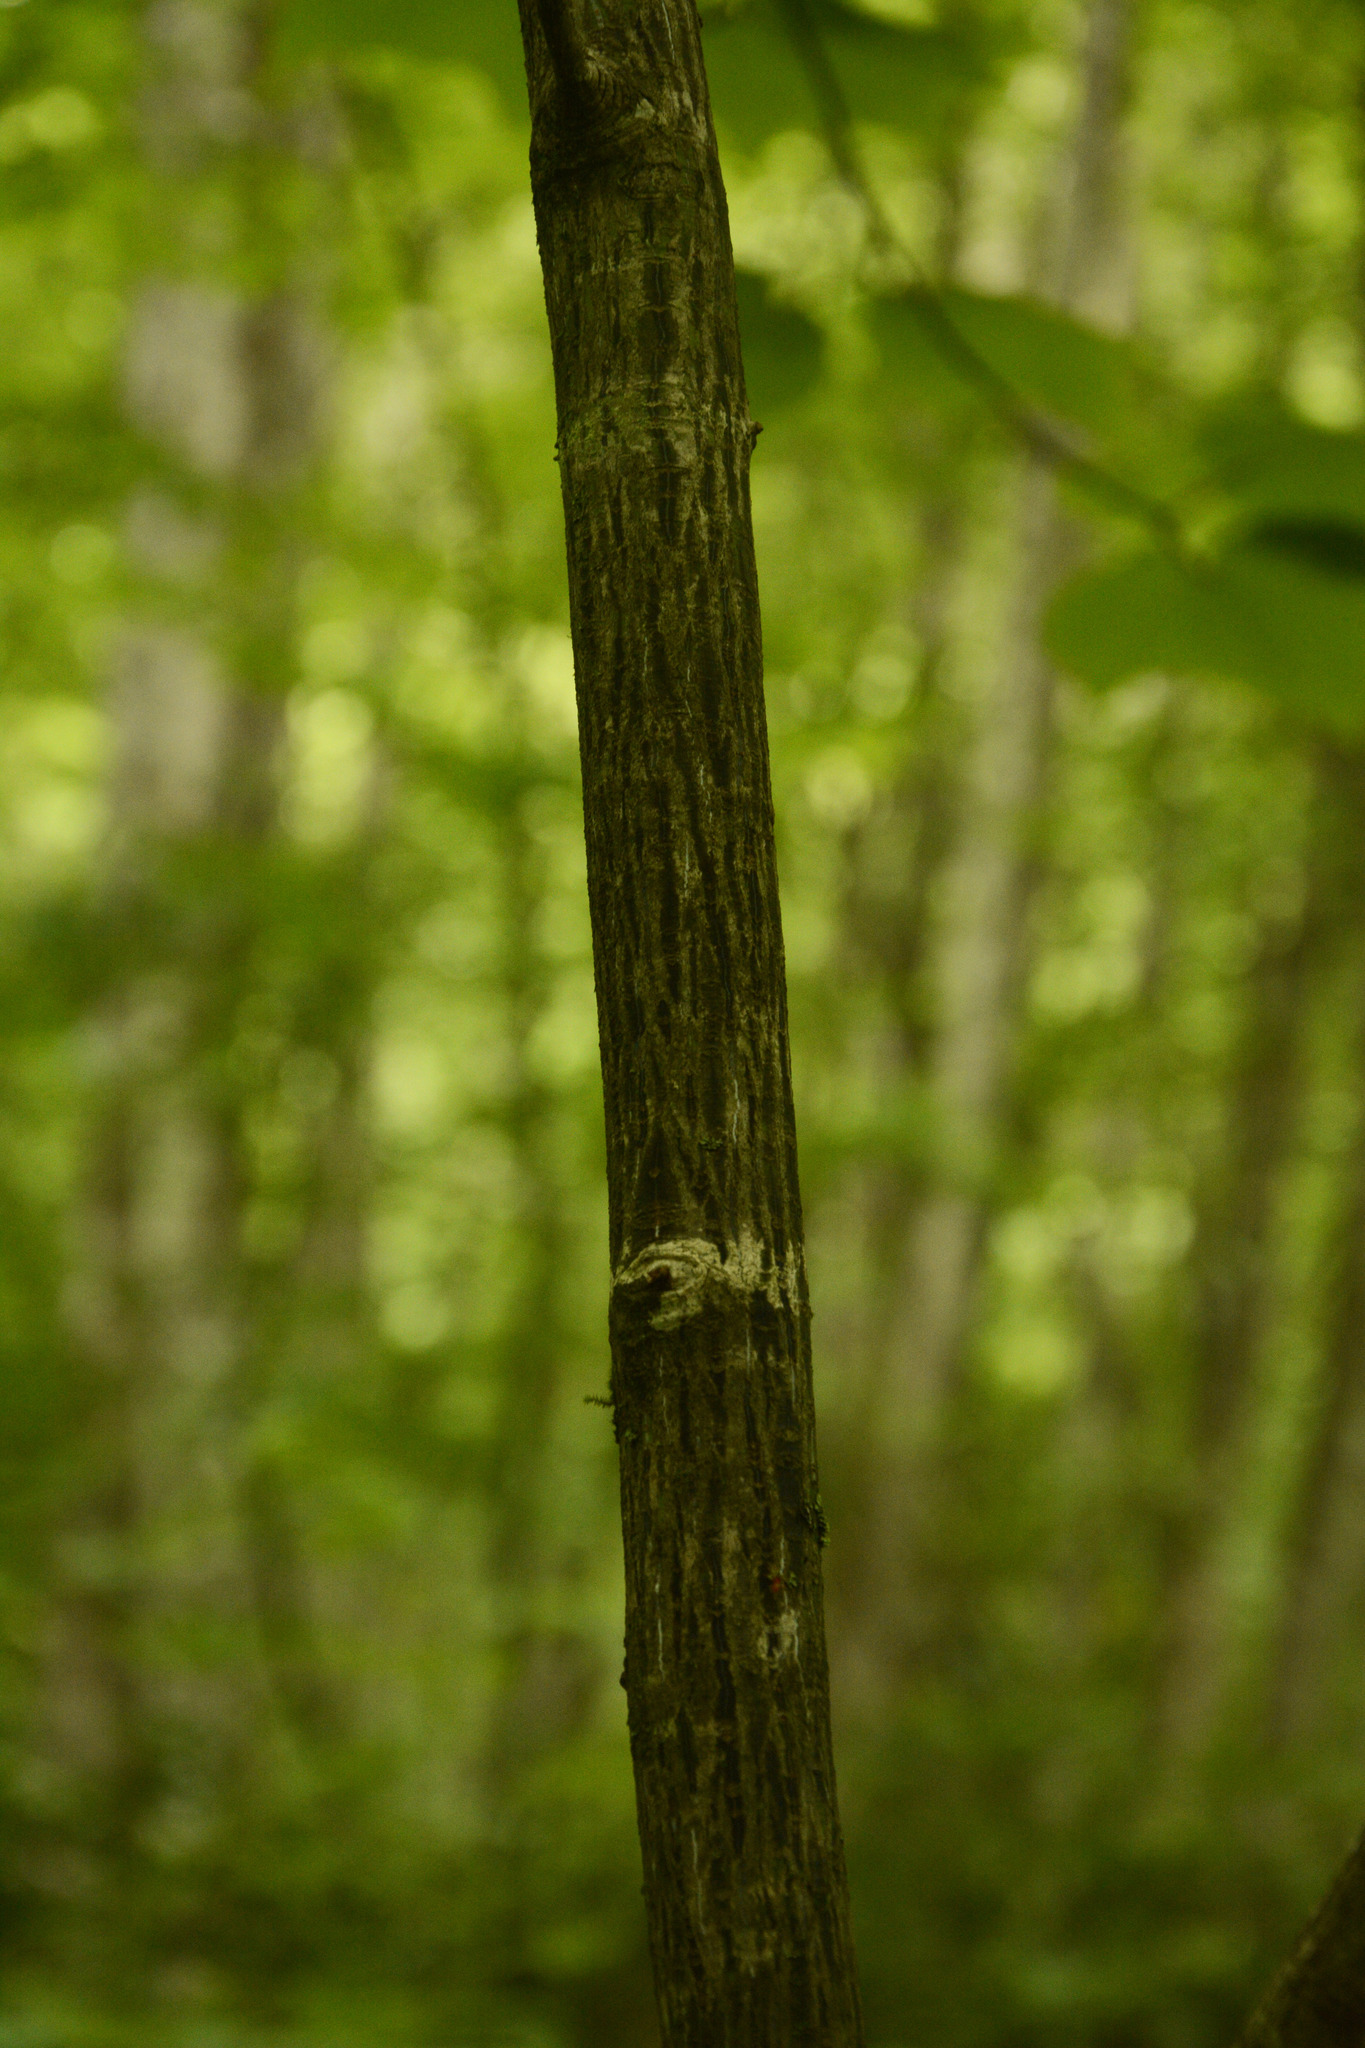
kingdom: Plantae
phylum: Tracheophyta
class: Magnoliopsida
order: Sapindales
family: Sapindaceae
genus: Acer
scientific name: Acer pensylvanicum
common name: Moosewood
